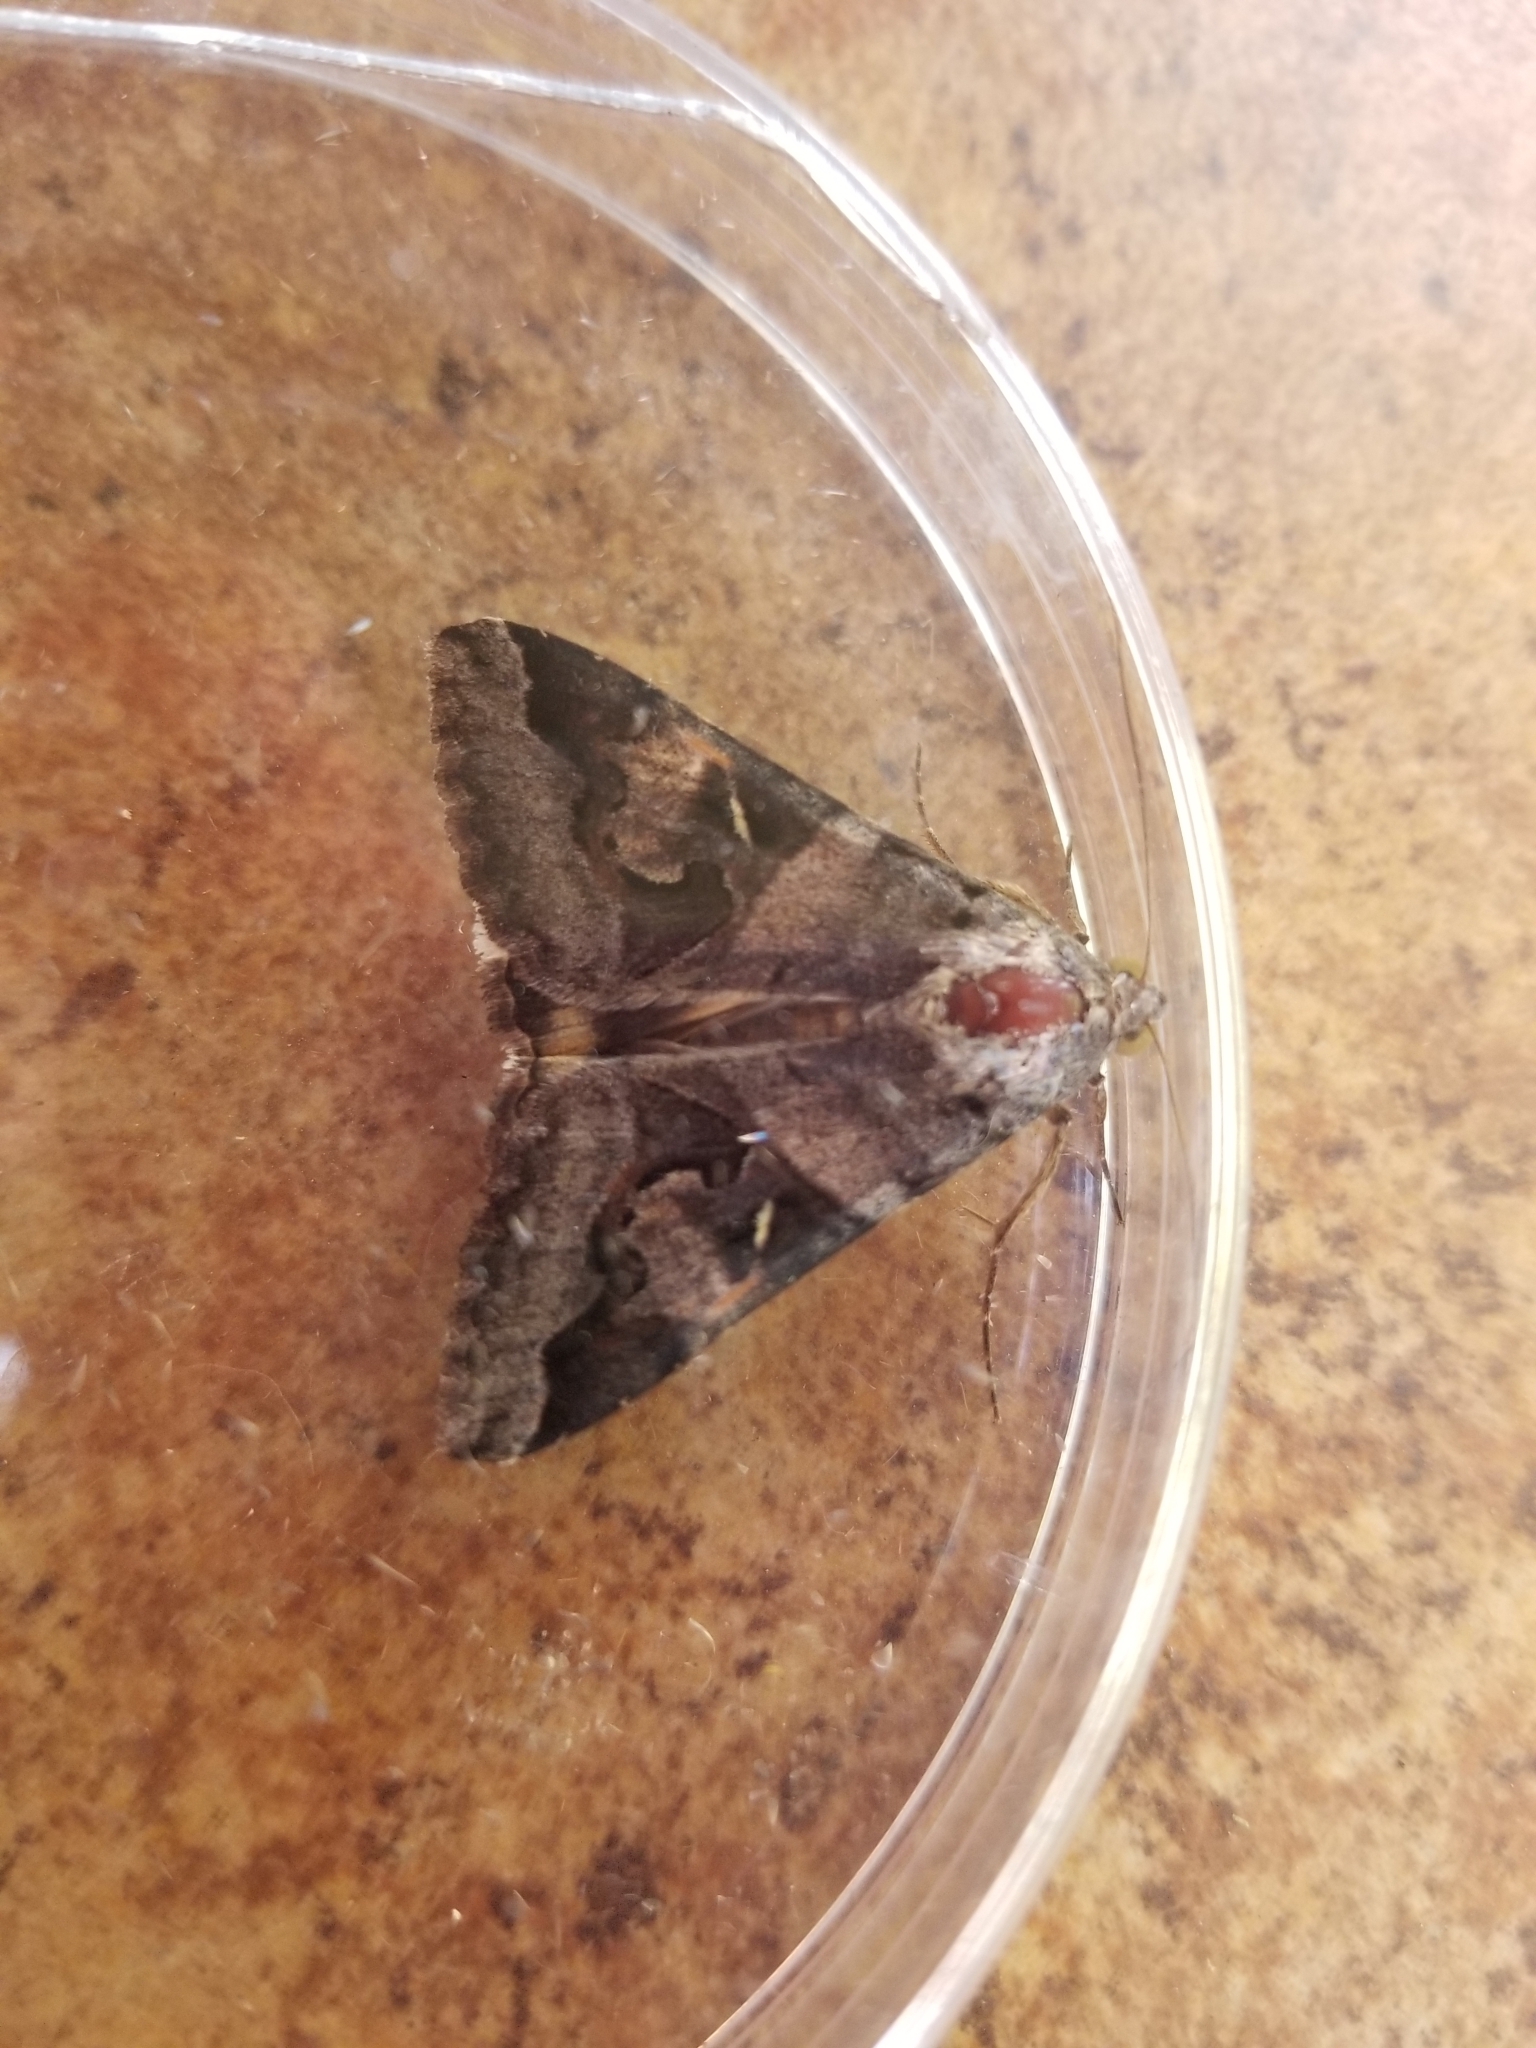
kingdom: Animalia
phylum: Arthropoda
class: Insecta
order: Lepidoptera
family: Erebidae
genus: Melipotis
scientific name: Melipotis indomita
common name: Moth
